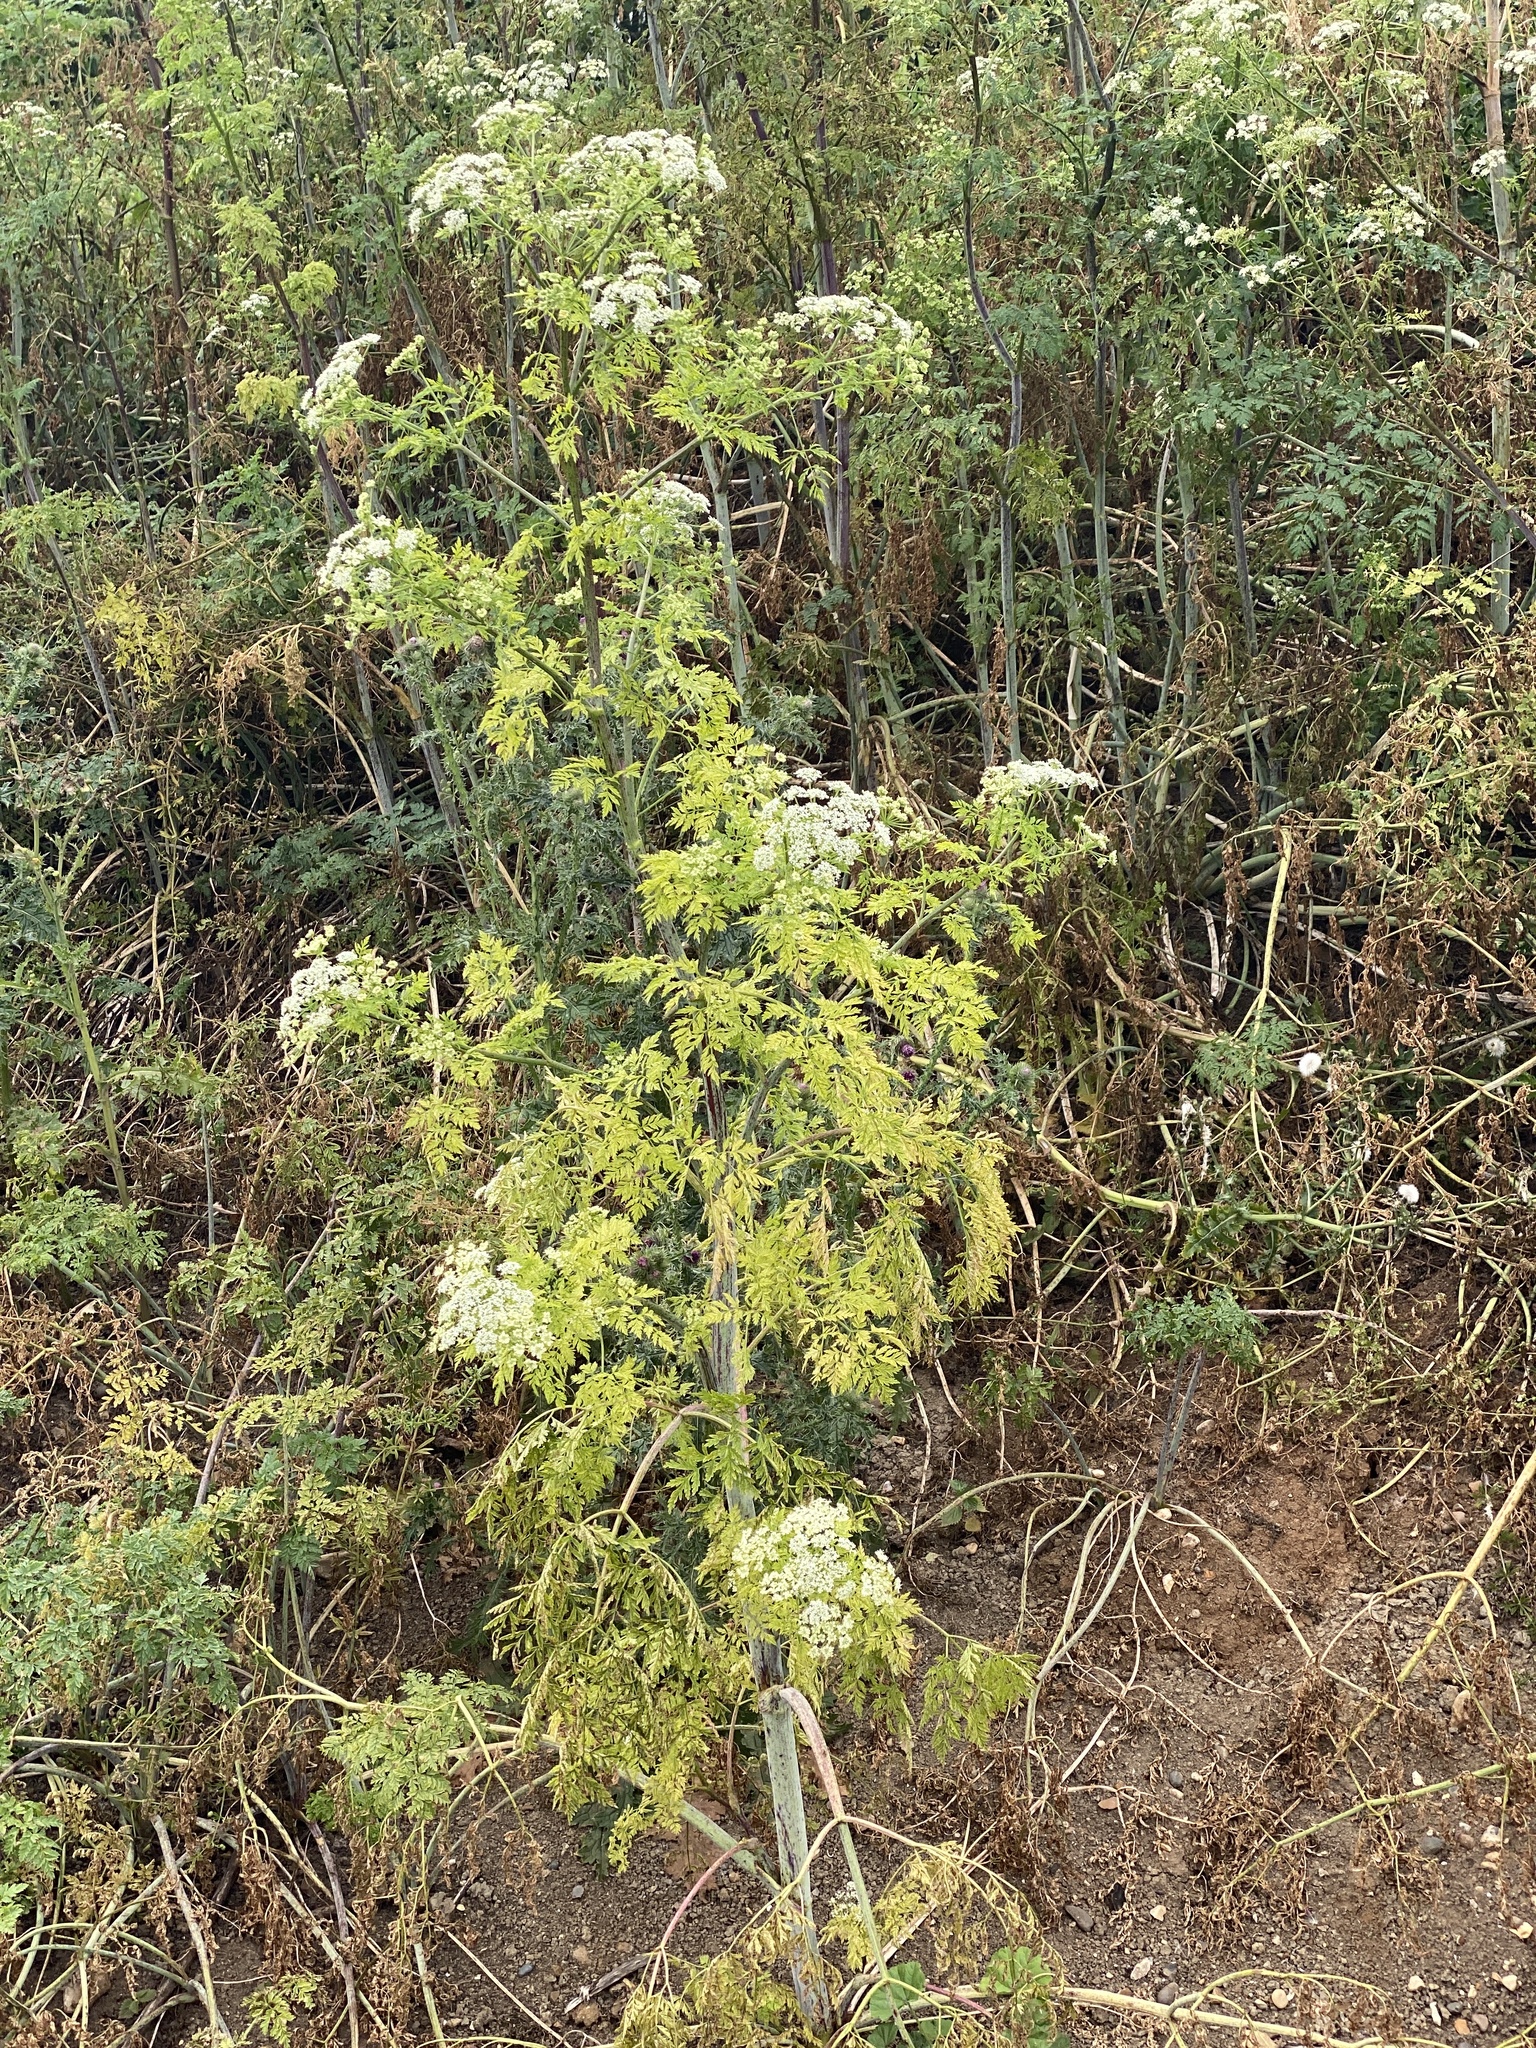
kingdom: Plantae
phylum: Tracheophyta
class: Magnoliopsida
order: Apiales
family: Apiaceae
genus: Conium
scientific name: Conium maculatum
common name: Hemlock
